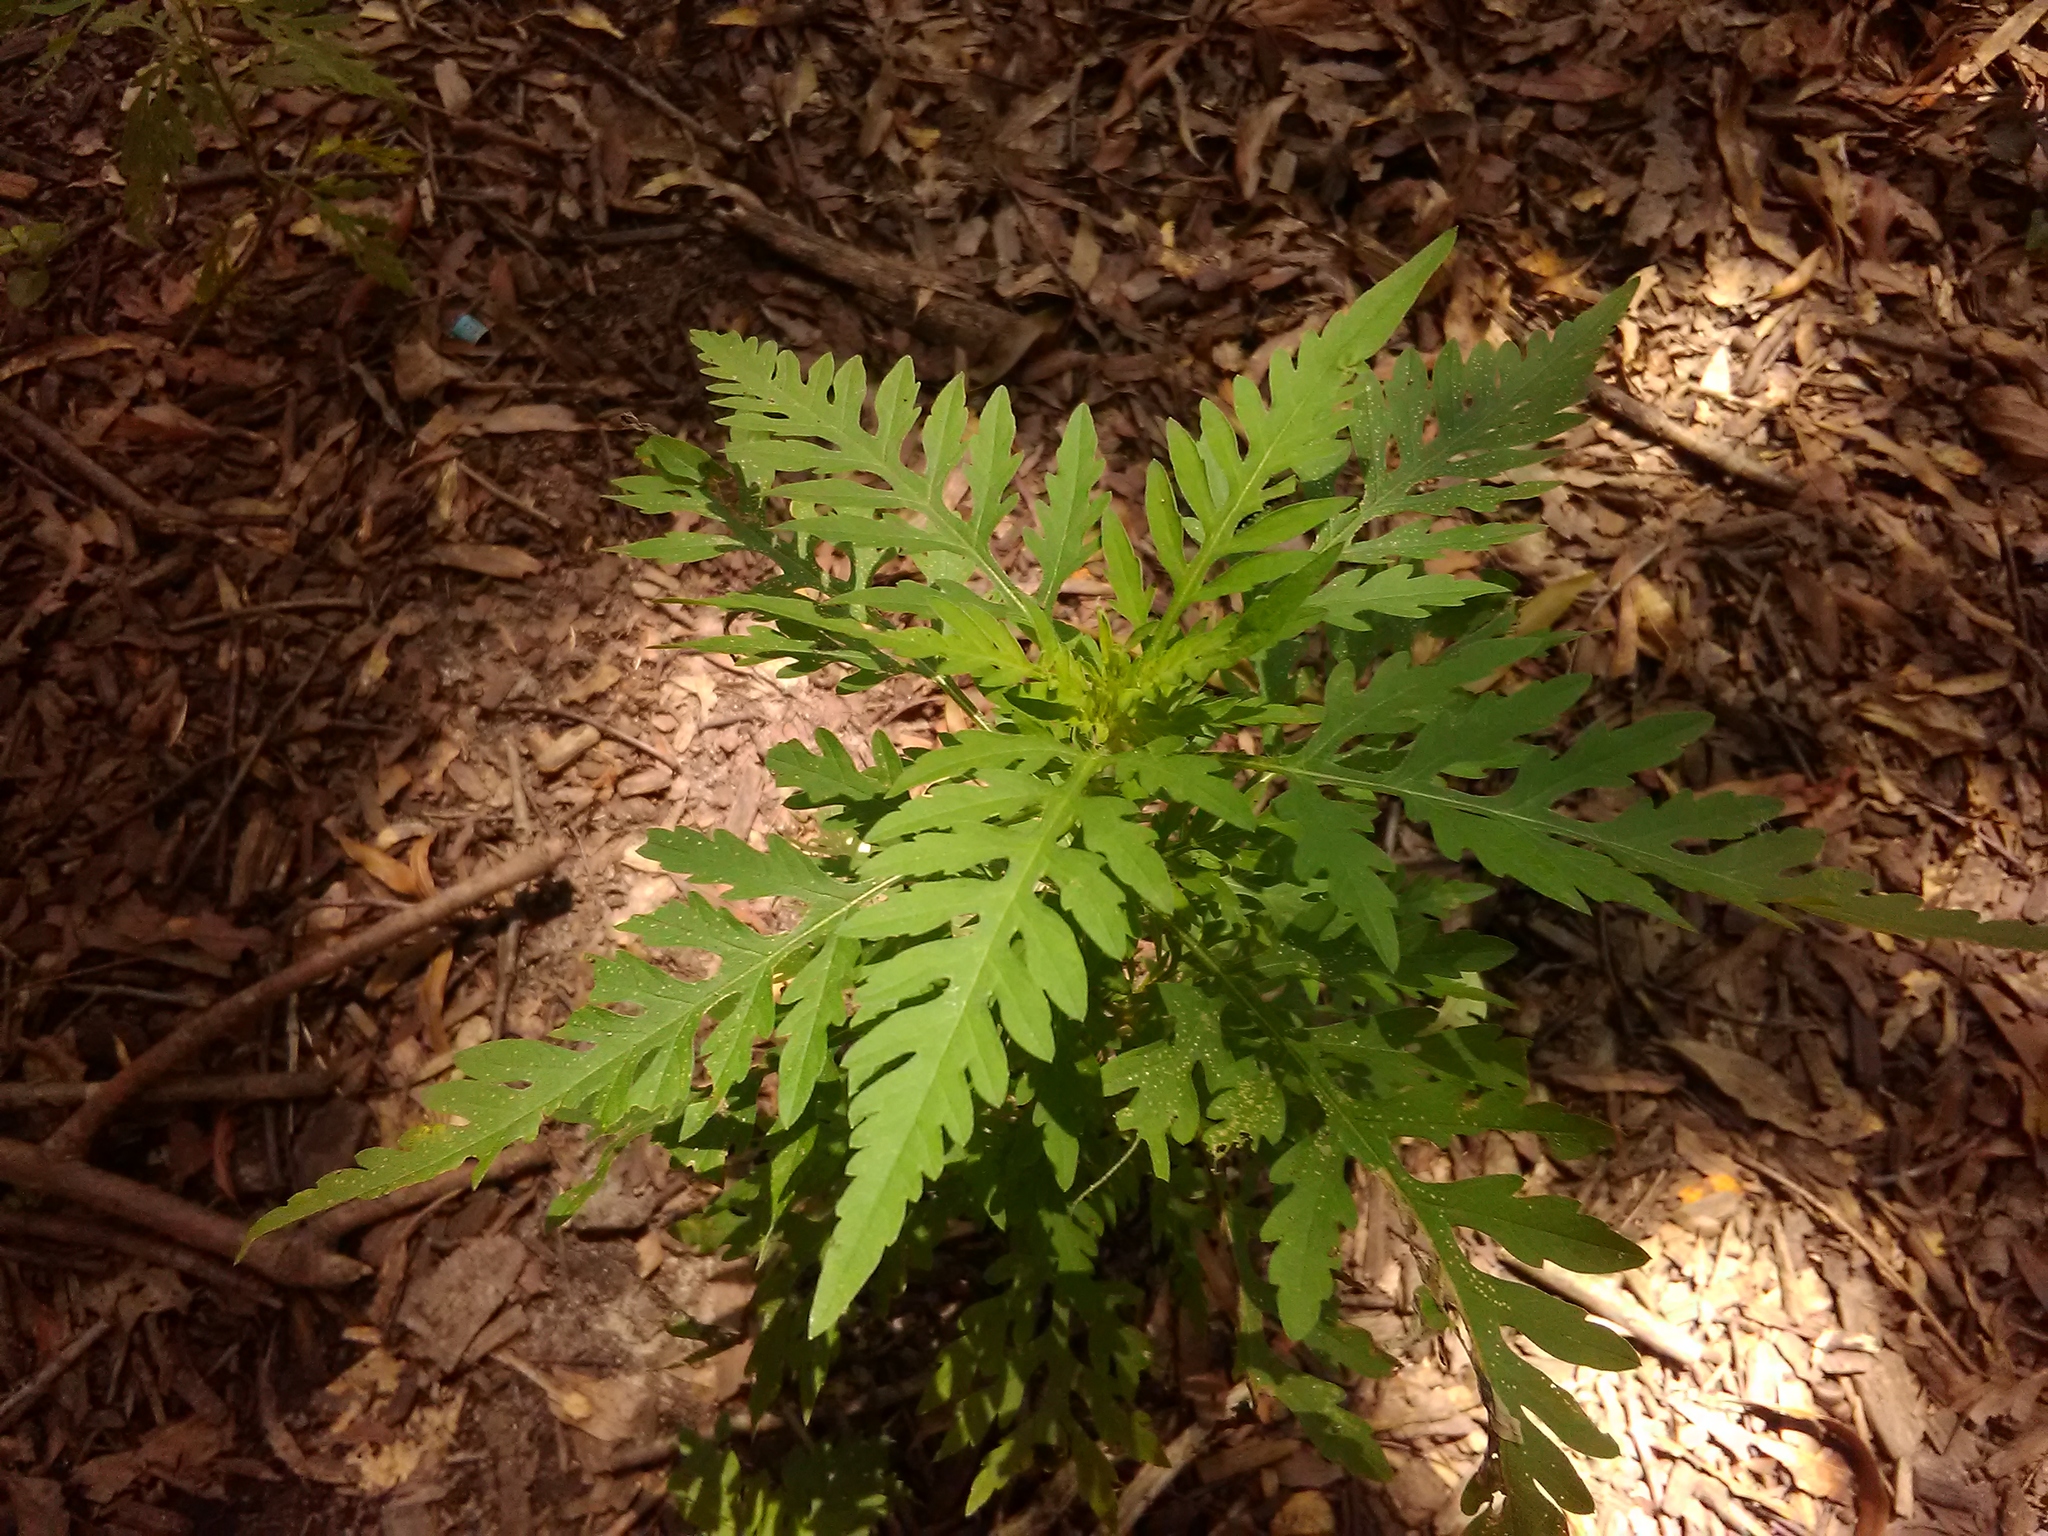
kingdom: Plantae
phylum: Tracheophyta
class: Magnoliopsida
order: Asterales
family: Asteraceae
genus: Ambrosia
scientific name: Ambrosia artemisiifolia
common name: Annual ragweed
